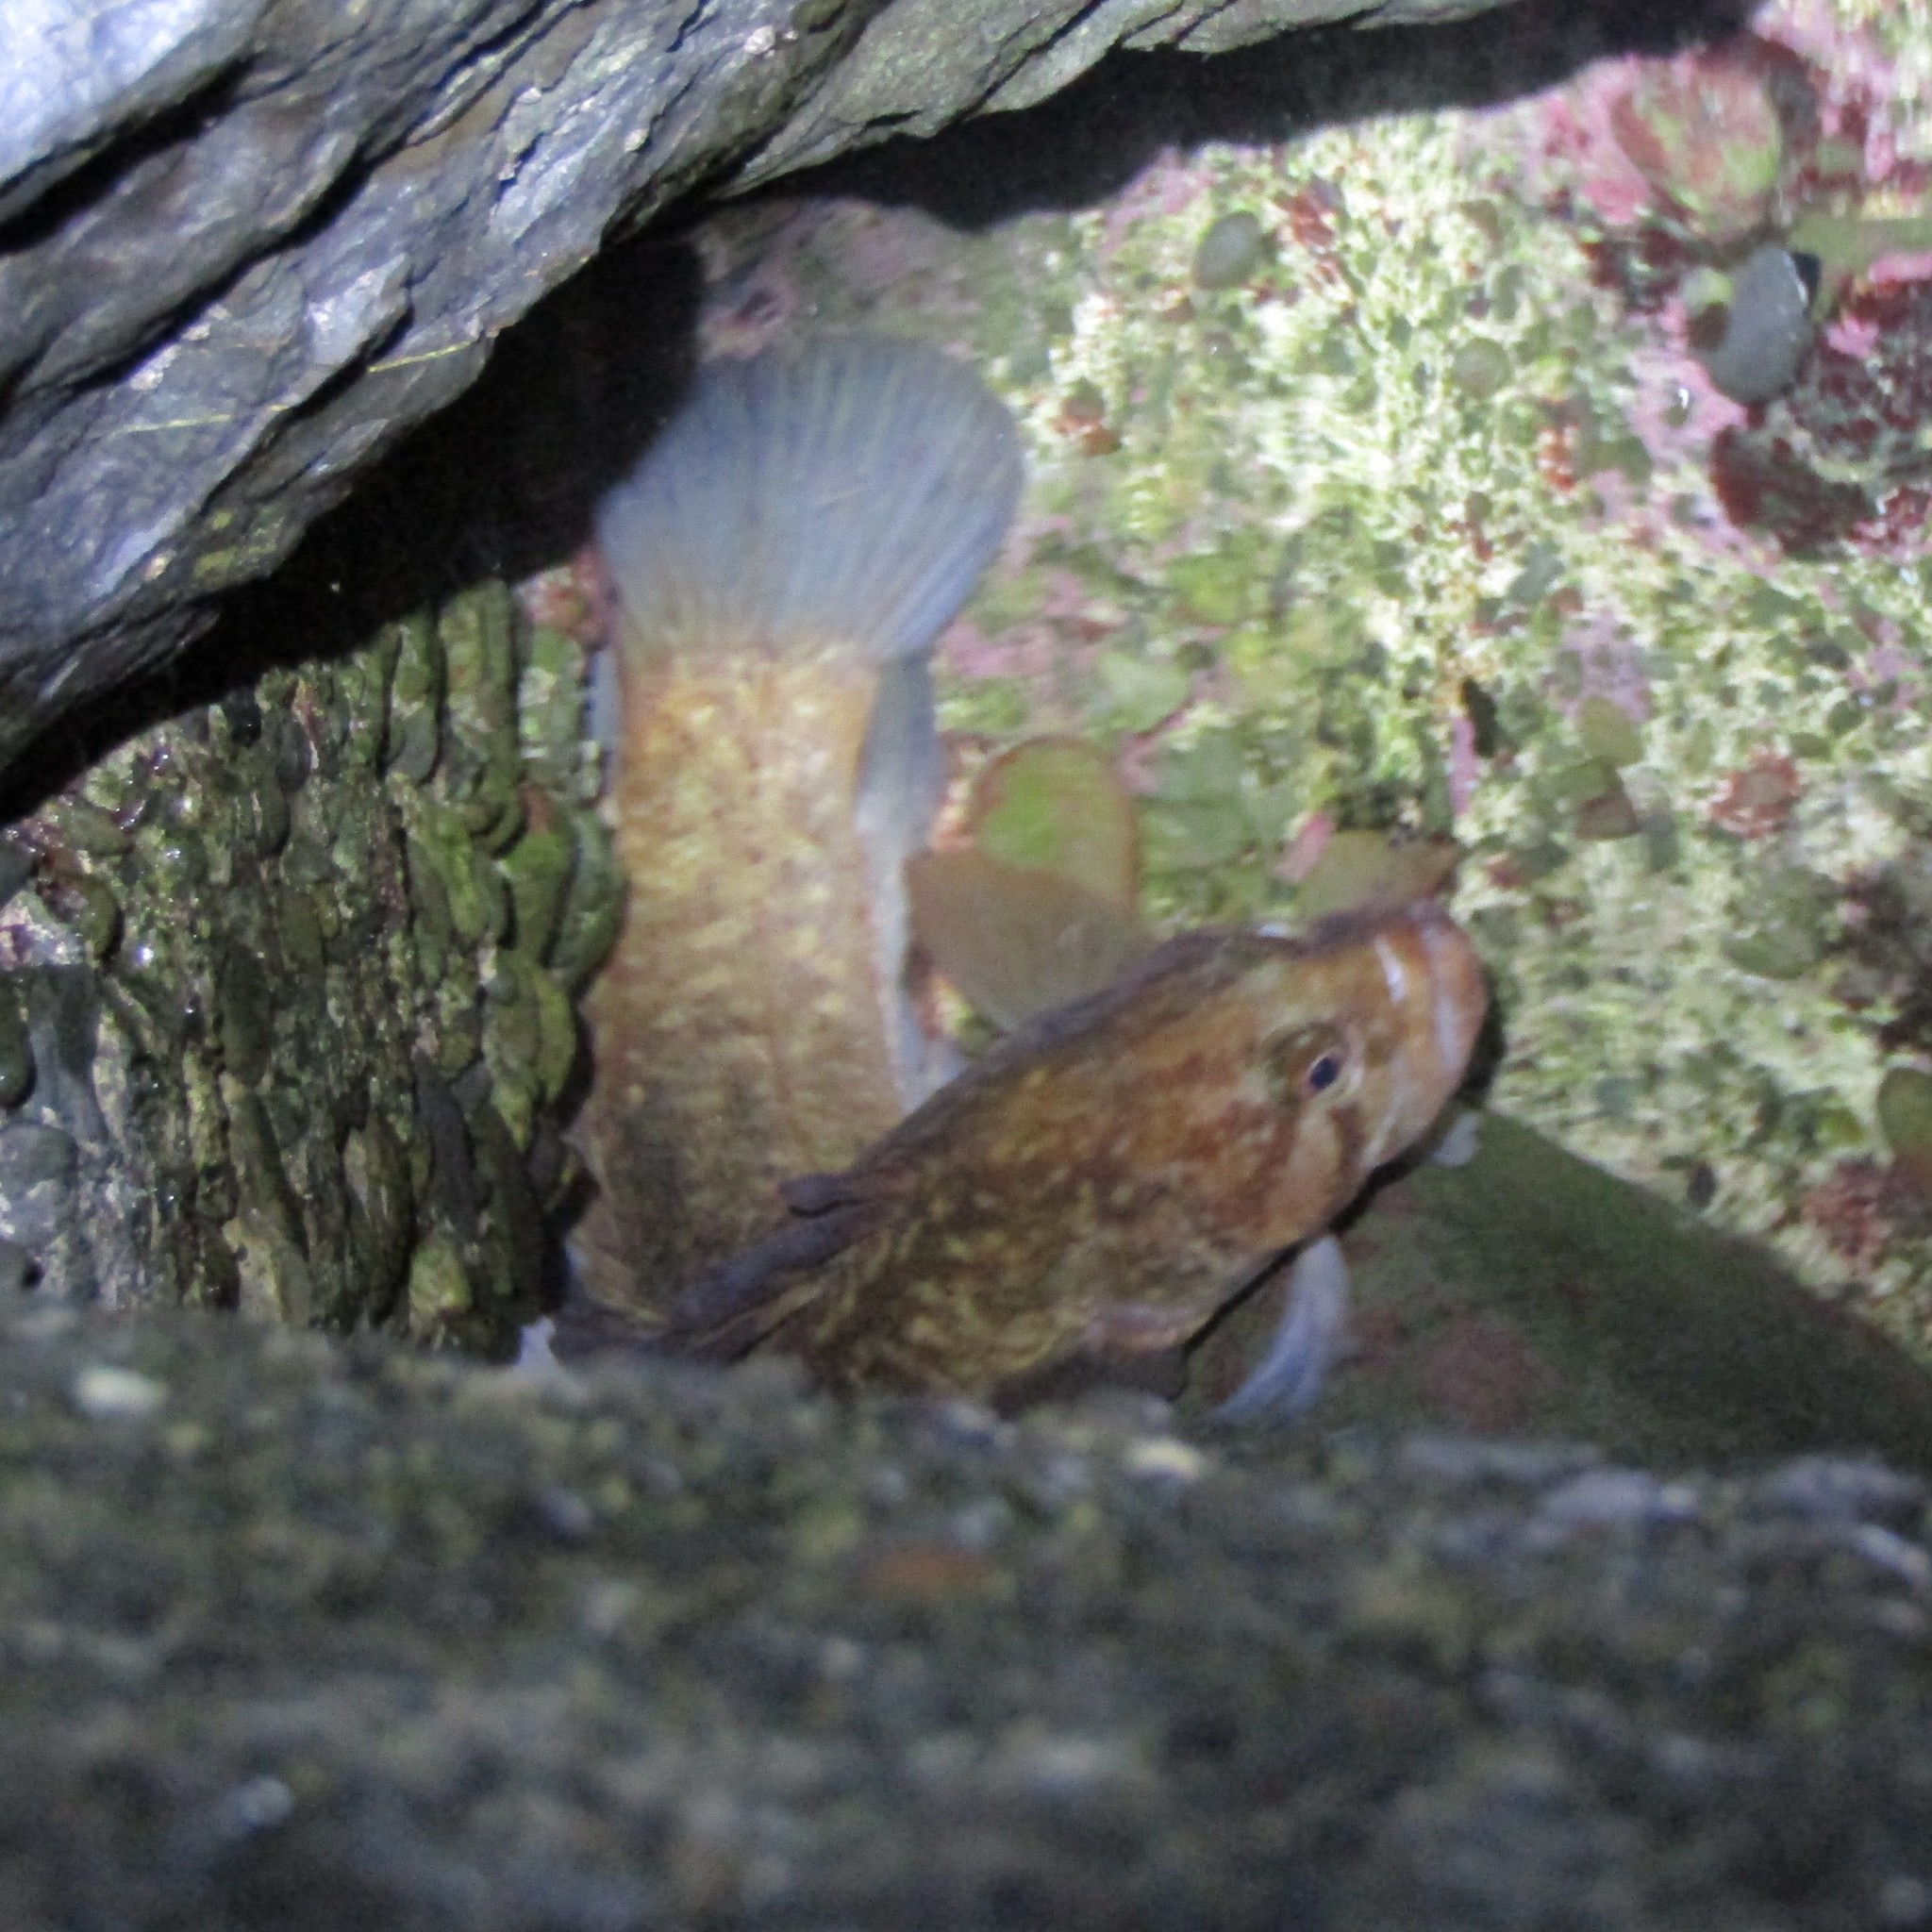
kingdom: Animalia
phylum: Chordata
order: Perciformes
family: Plesiopidae
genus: Acanthoclinus
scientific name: Acanthoclinus fuscus
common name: Olive rockfish
